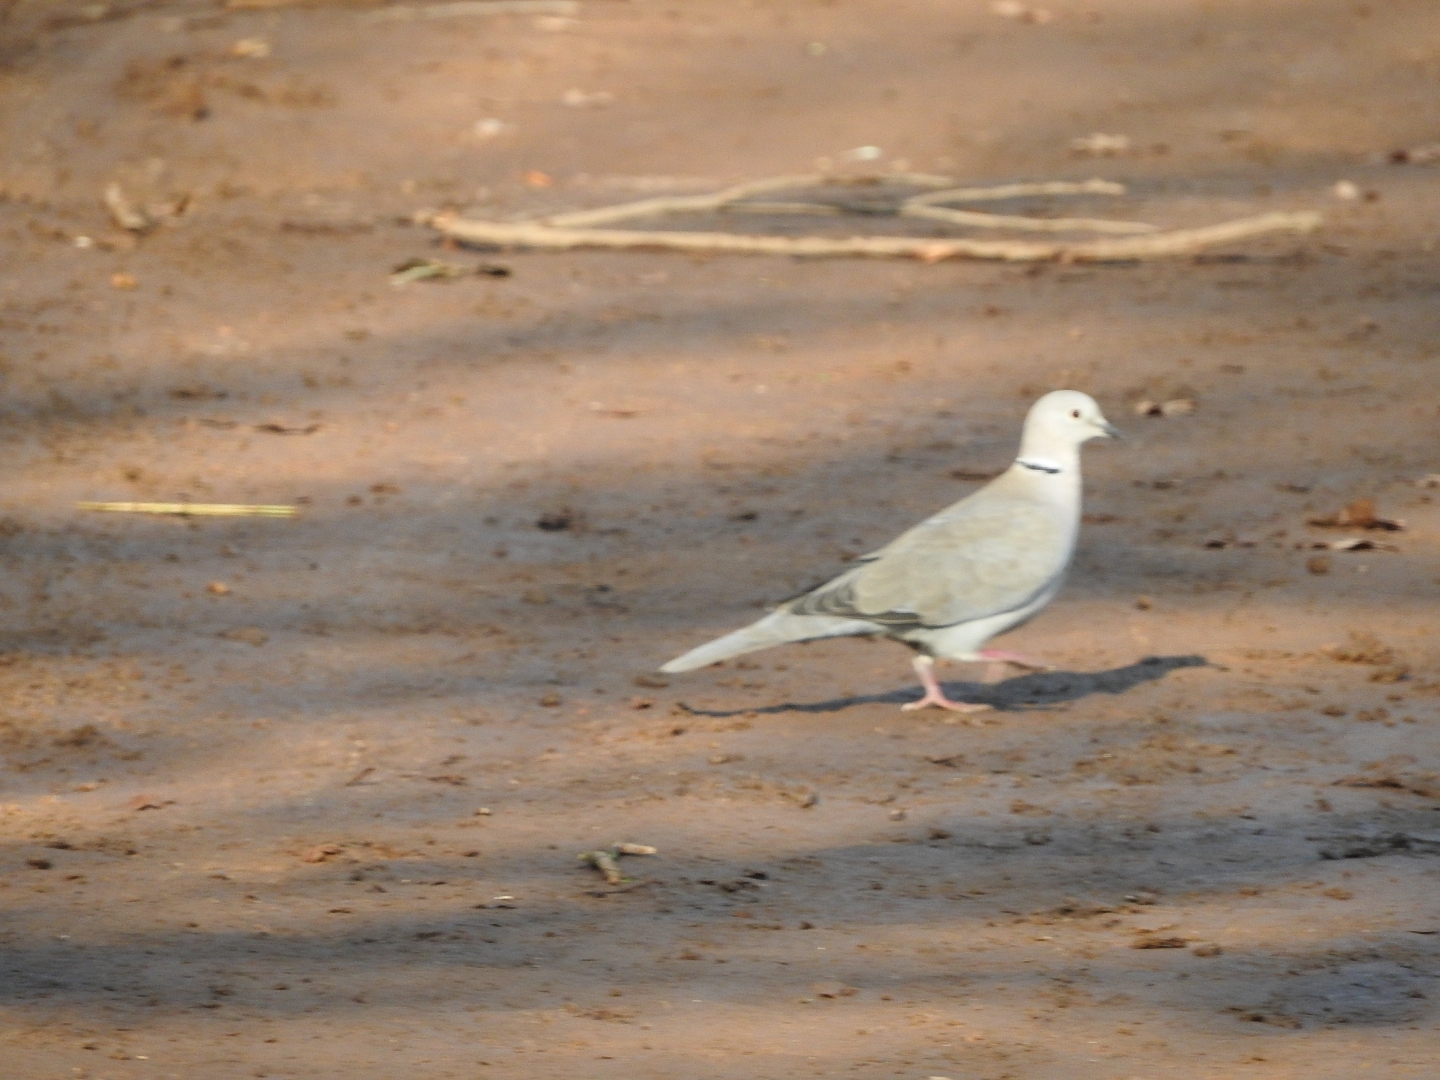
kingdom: Animalia
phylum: Chordata
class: Aves
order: Columbiformes
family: Columbidae
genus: Streptopelia
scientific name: Streptopelia decaocto
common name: Eurasian collared dove
